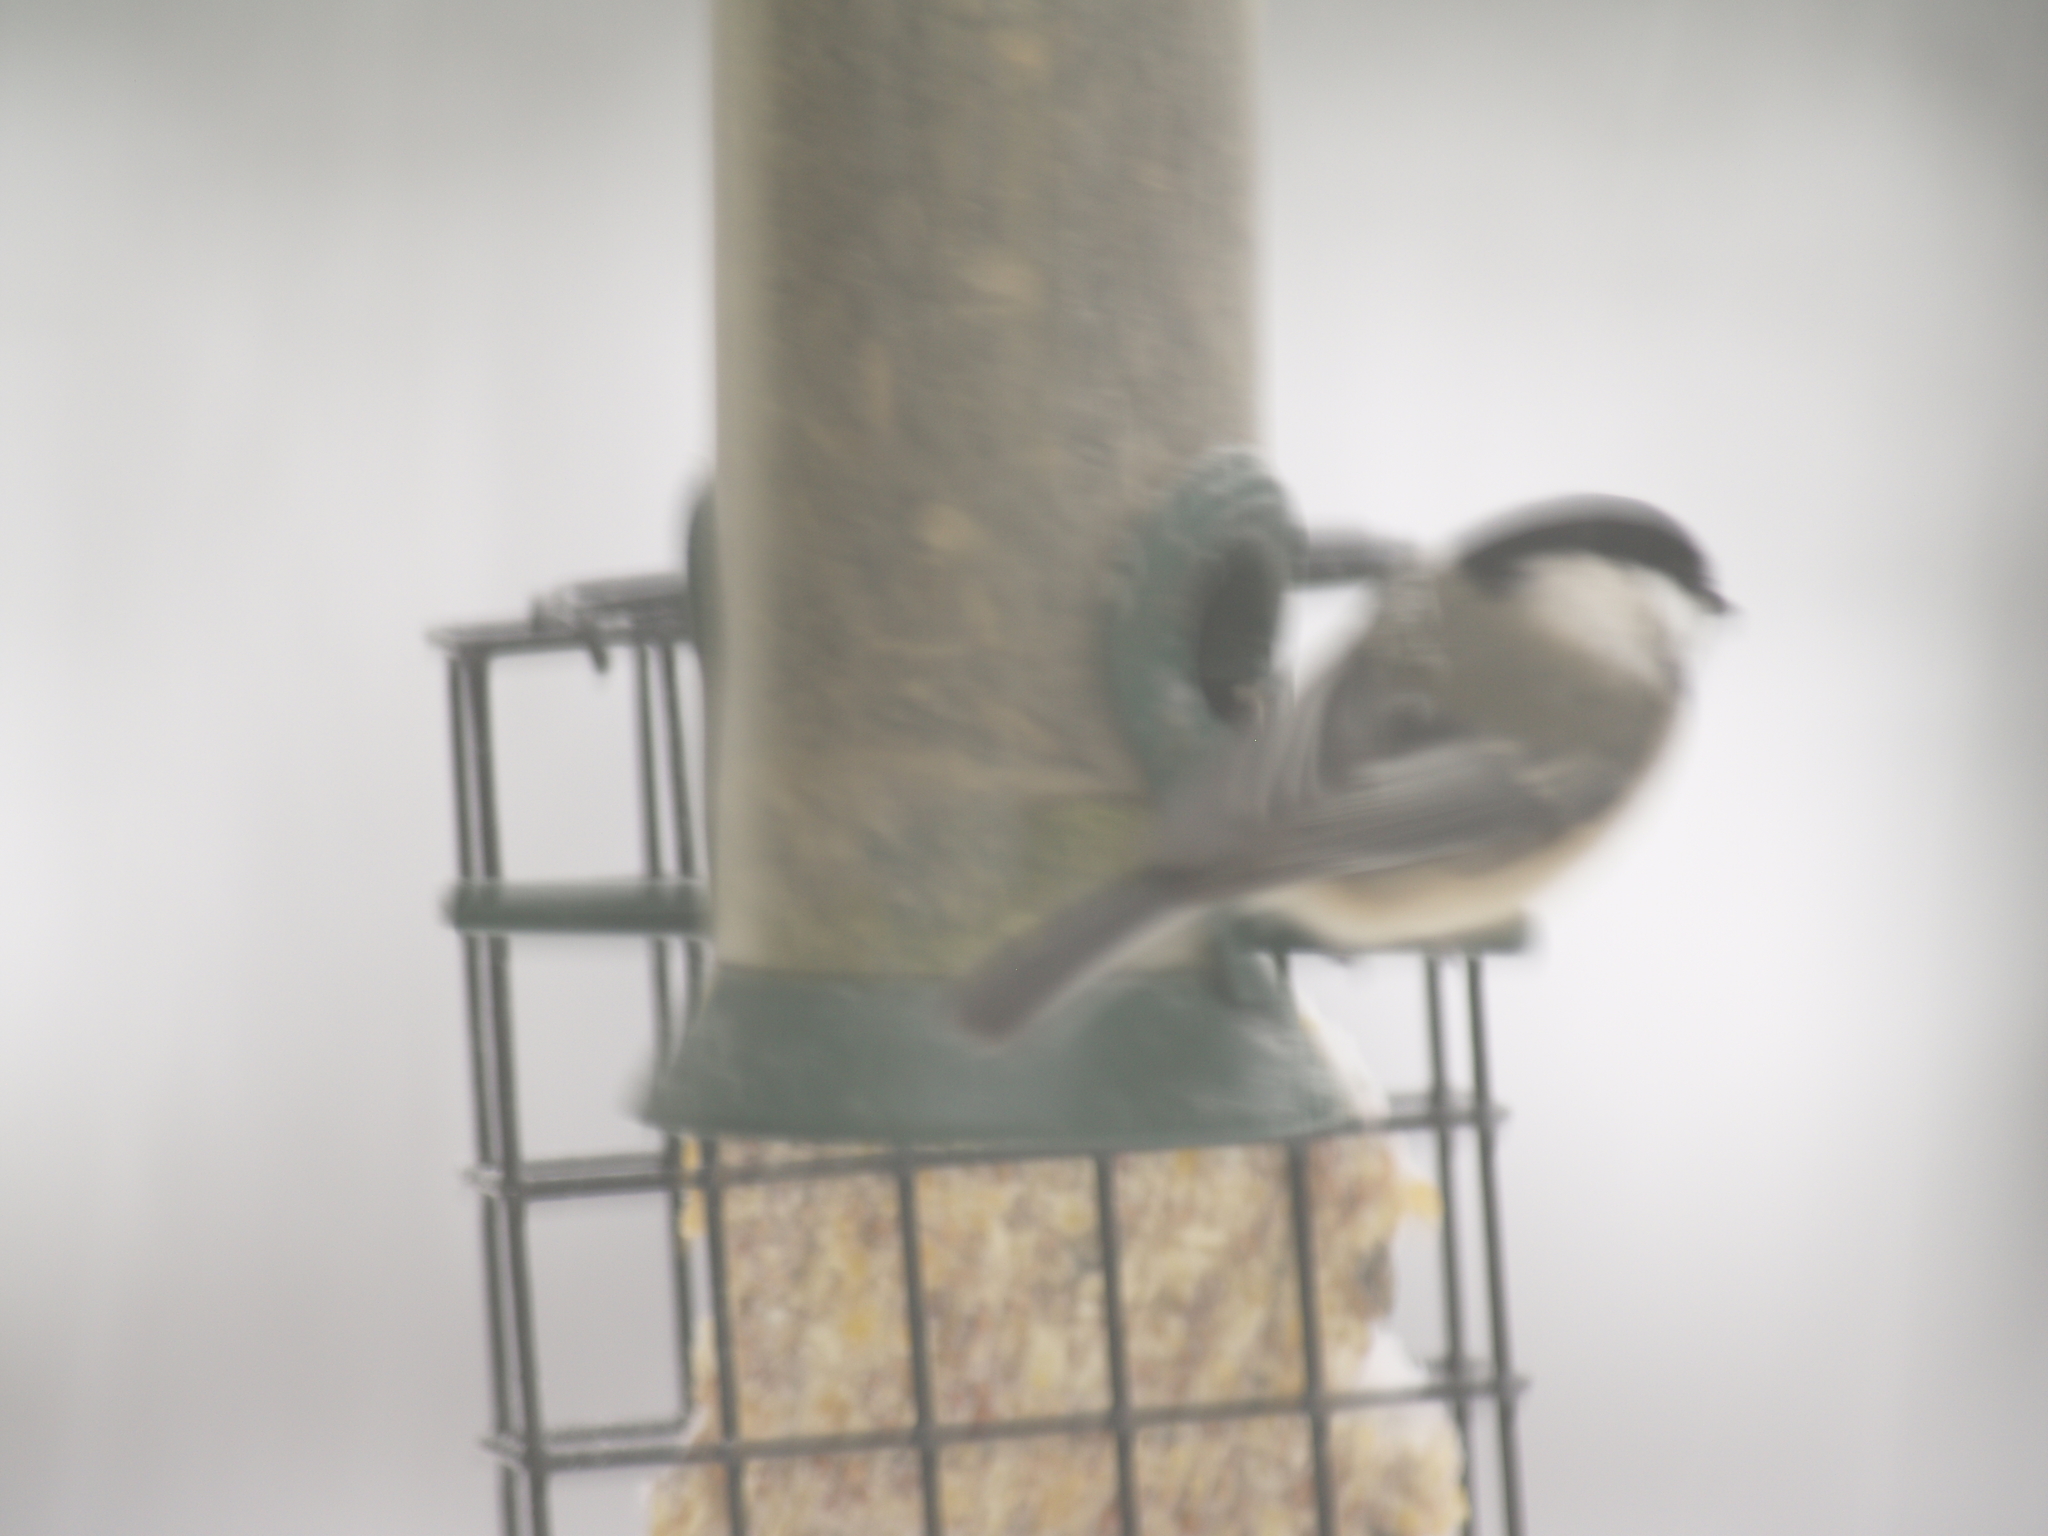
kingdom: Animalia
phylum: Chordata
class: Aves
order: Passeriformes
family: Paridae
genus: Poecile
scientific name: Poecile atricapillus
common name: Black-capped chickadee
